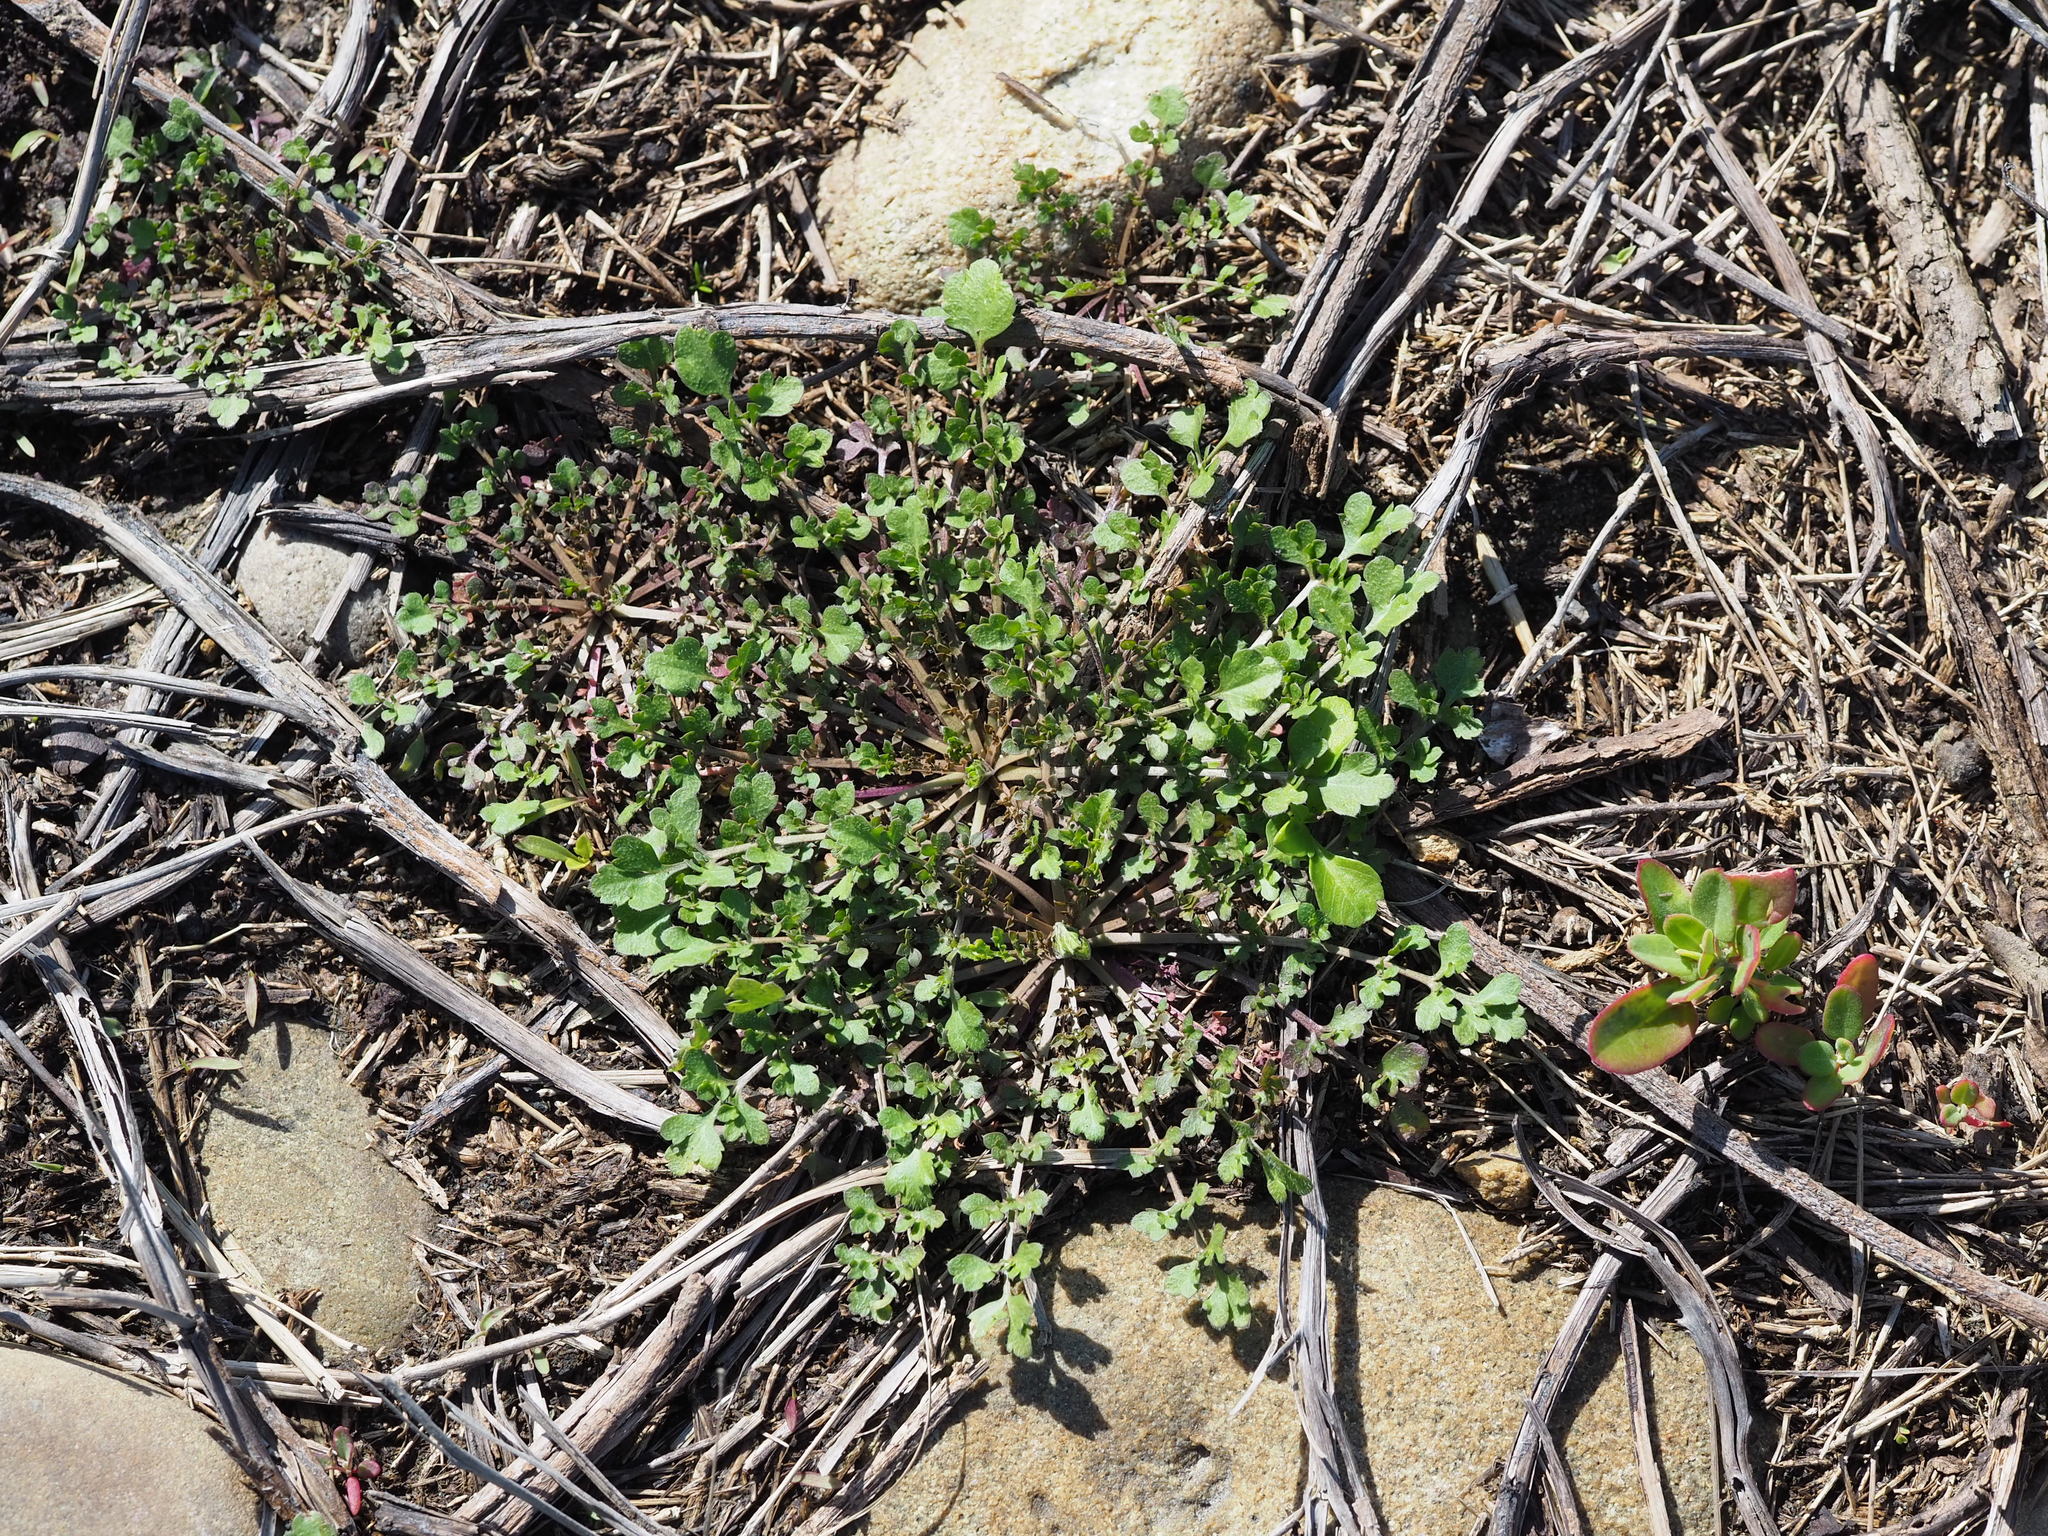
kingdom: Plantae
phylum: Tracheophyta
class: Magnoliopsida
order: Brassicales
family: Brassicaceae
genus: Capsella
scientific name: Capsella bursa-pastoris
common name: Shepherd's purse
